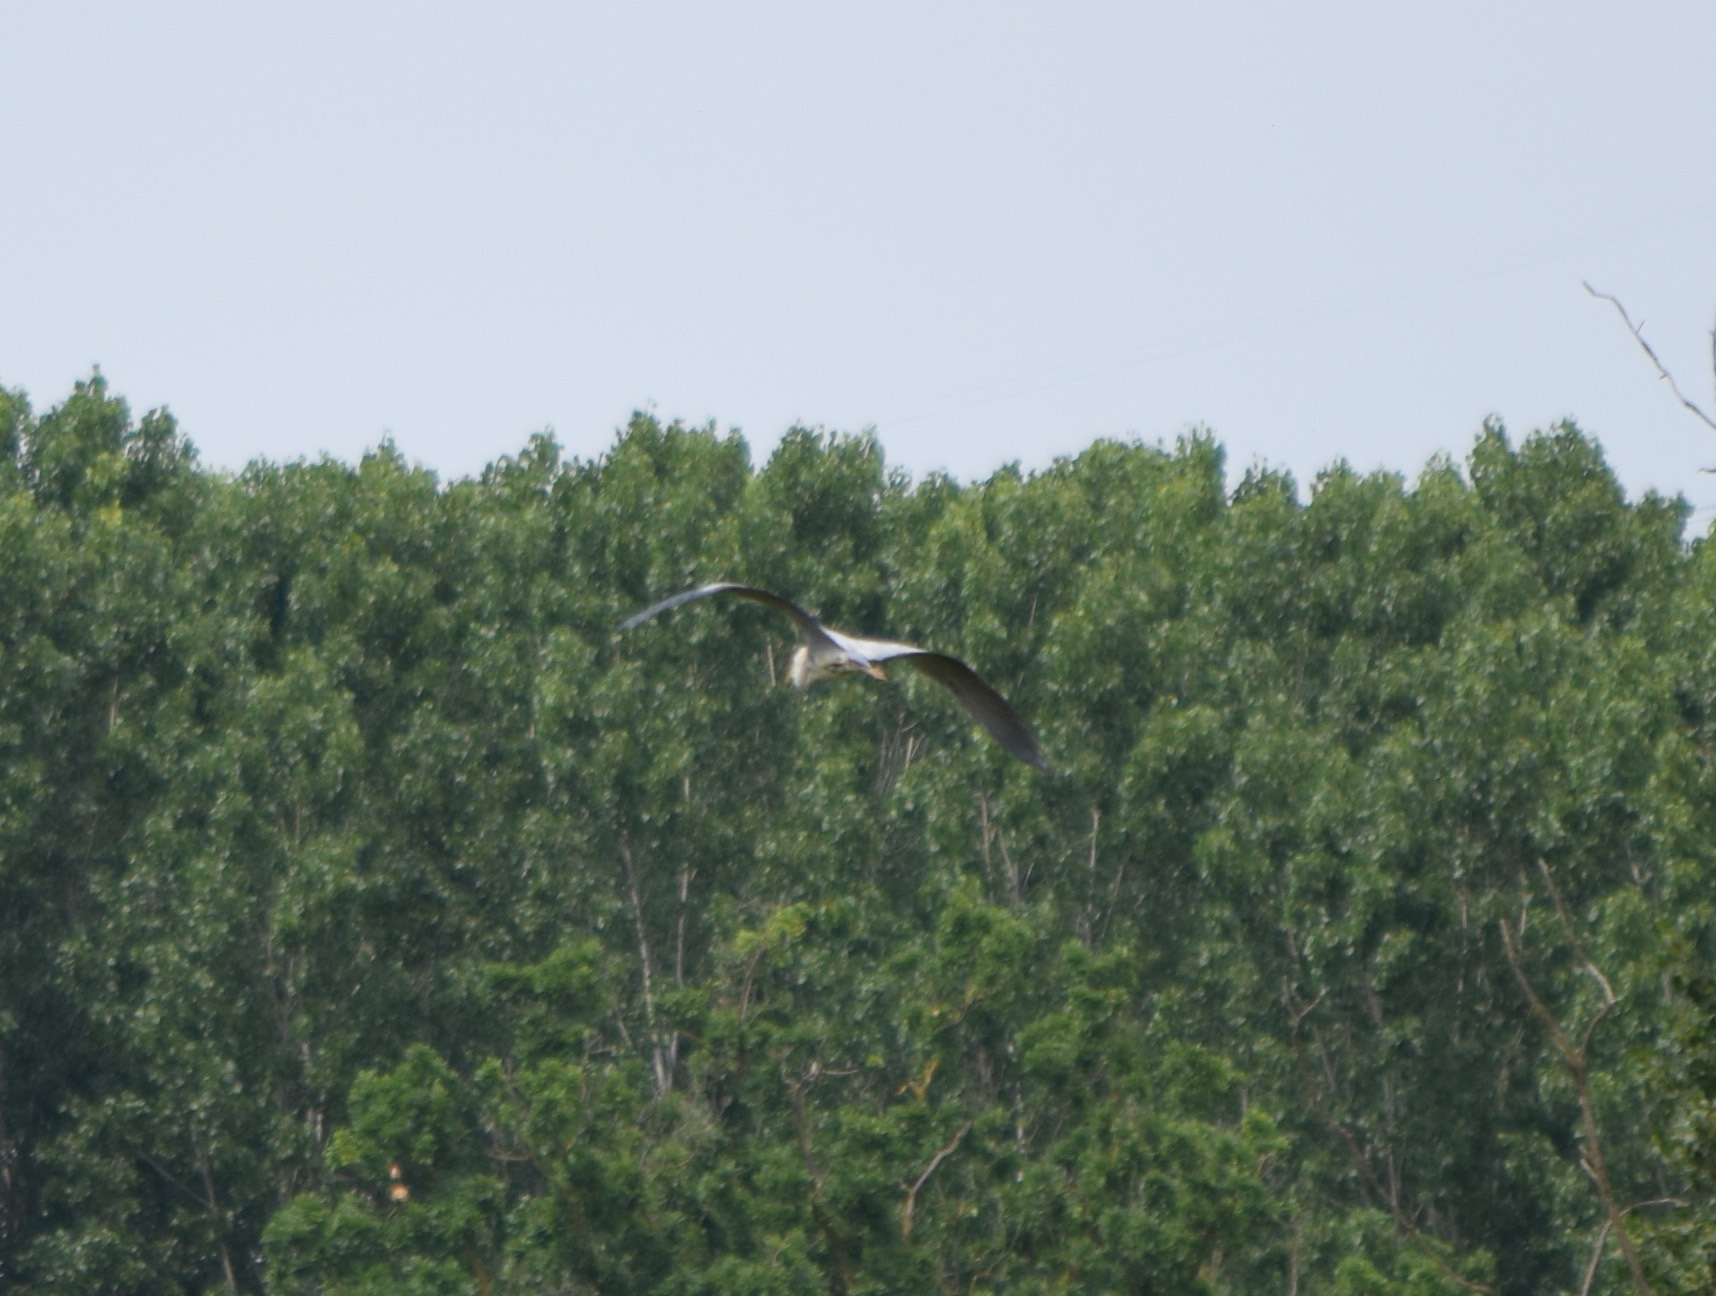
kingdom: Animalia
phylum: Chordata
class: Aves
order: Pelecaniformes
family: Ardeidae
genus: Ardea
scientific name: Ardea cinerea
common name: Grey heron
